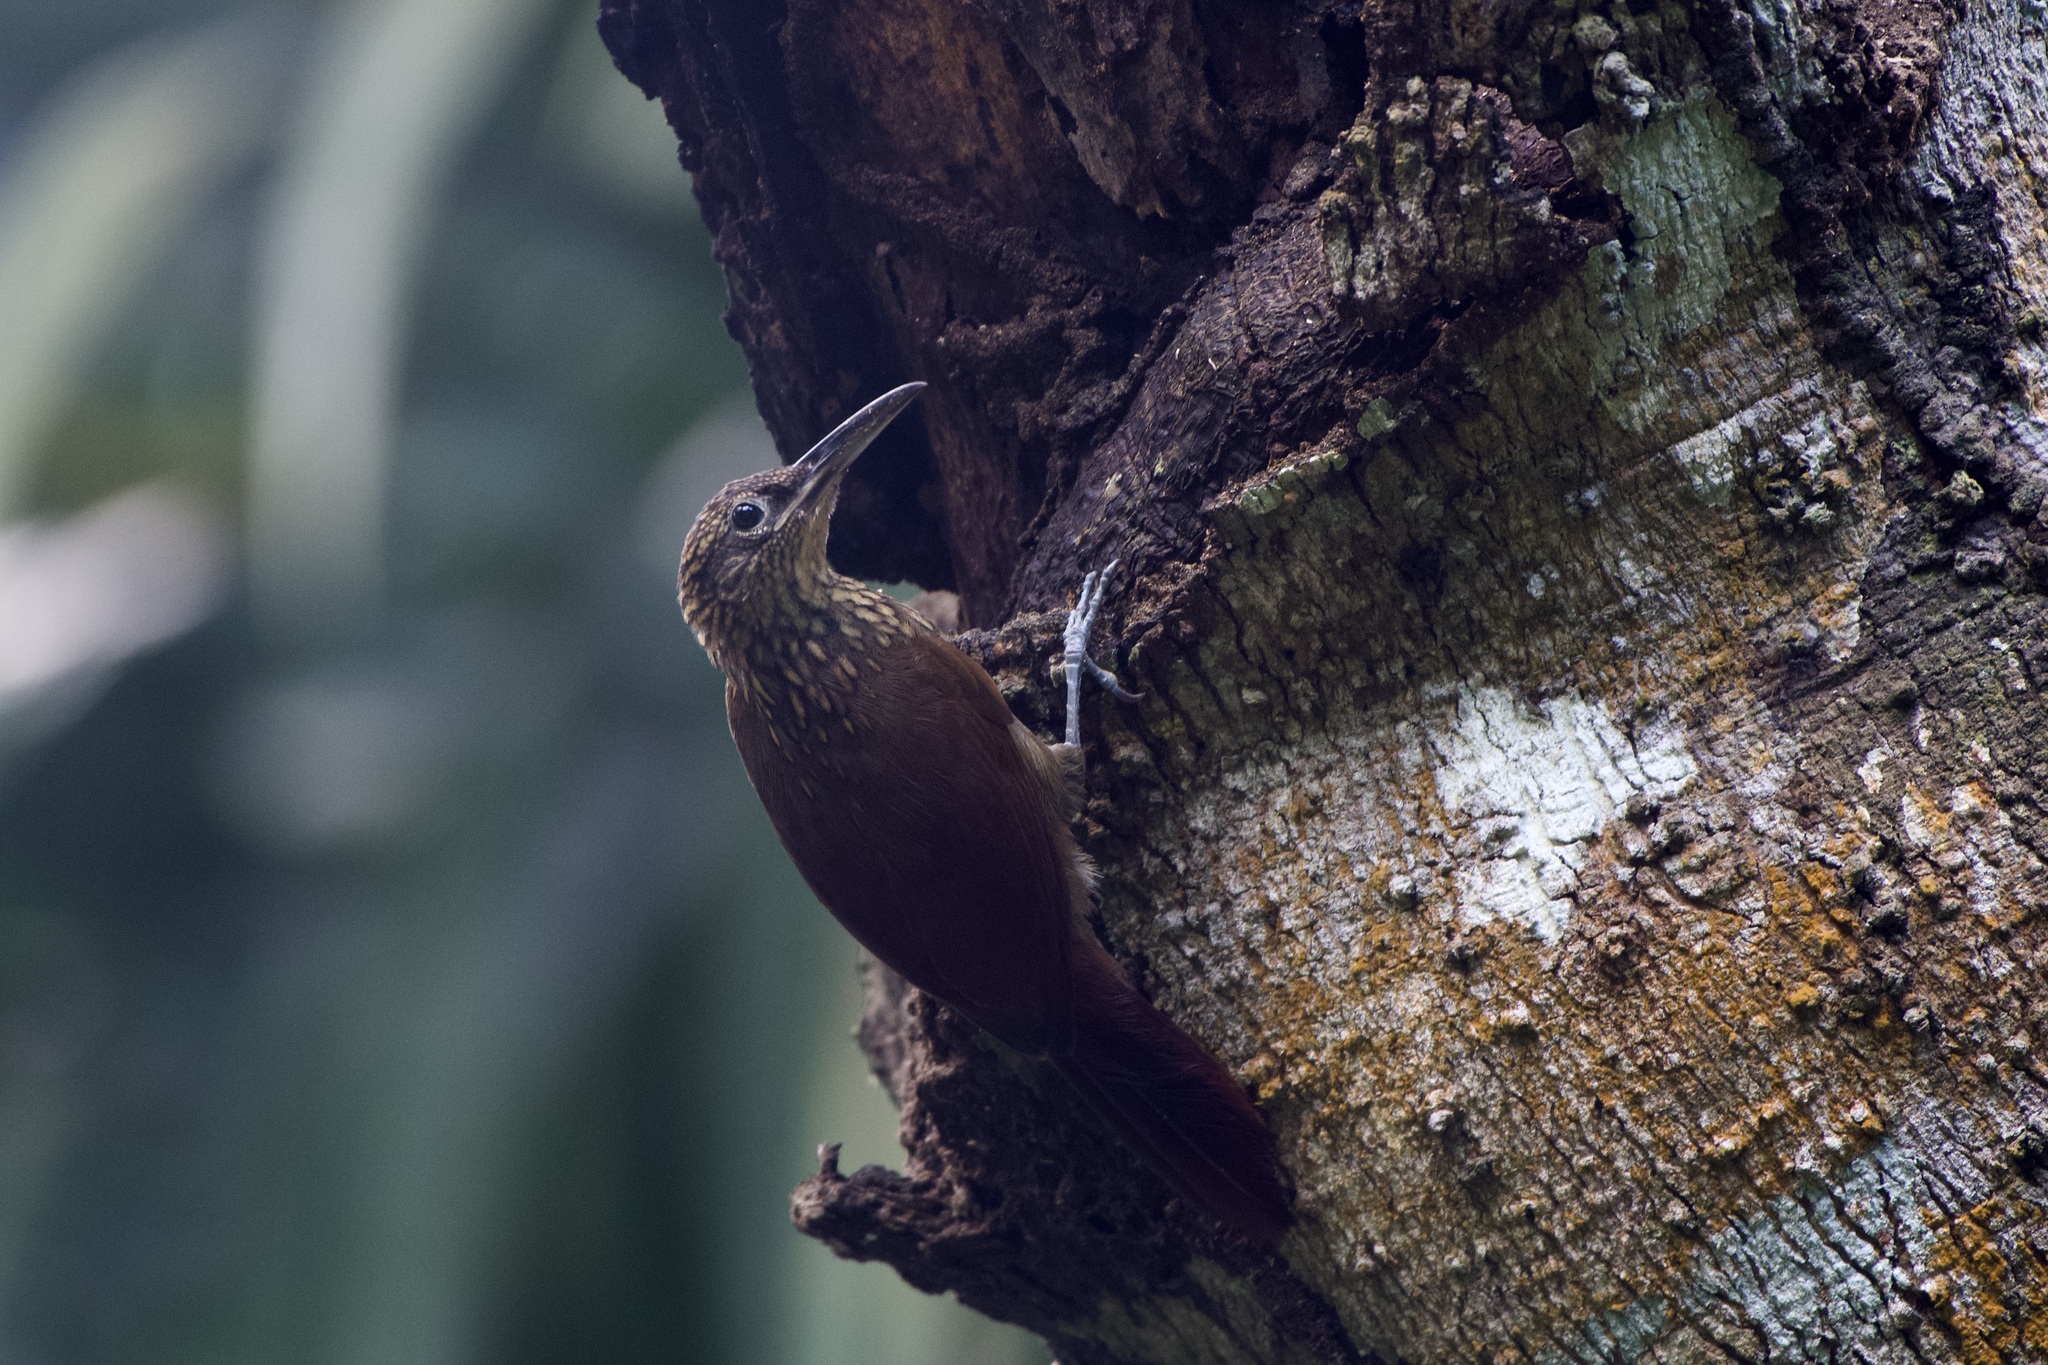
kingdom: Animalia
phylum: Chordata
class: Aves
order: Passeriformes
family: Furnariidae
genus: Xiphorhynchus
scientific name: Xiphorhynchus susurrans
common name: Cocoa woodcreeper
